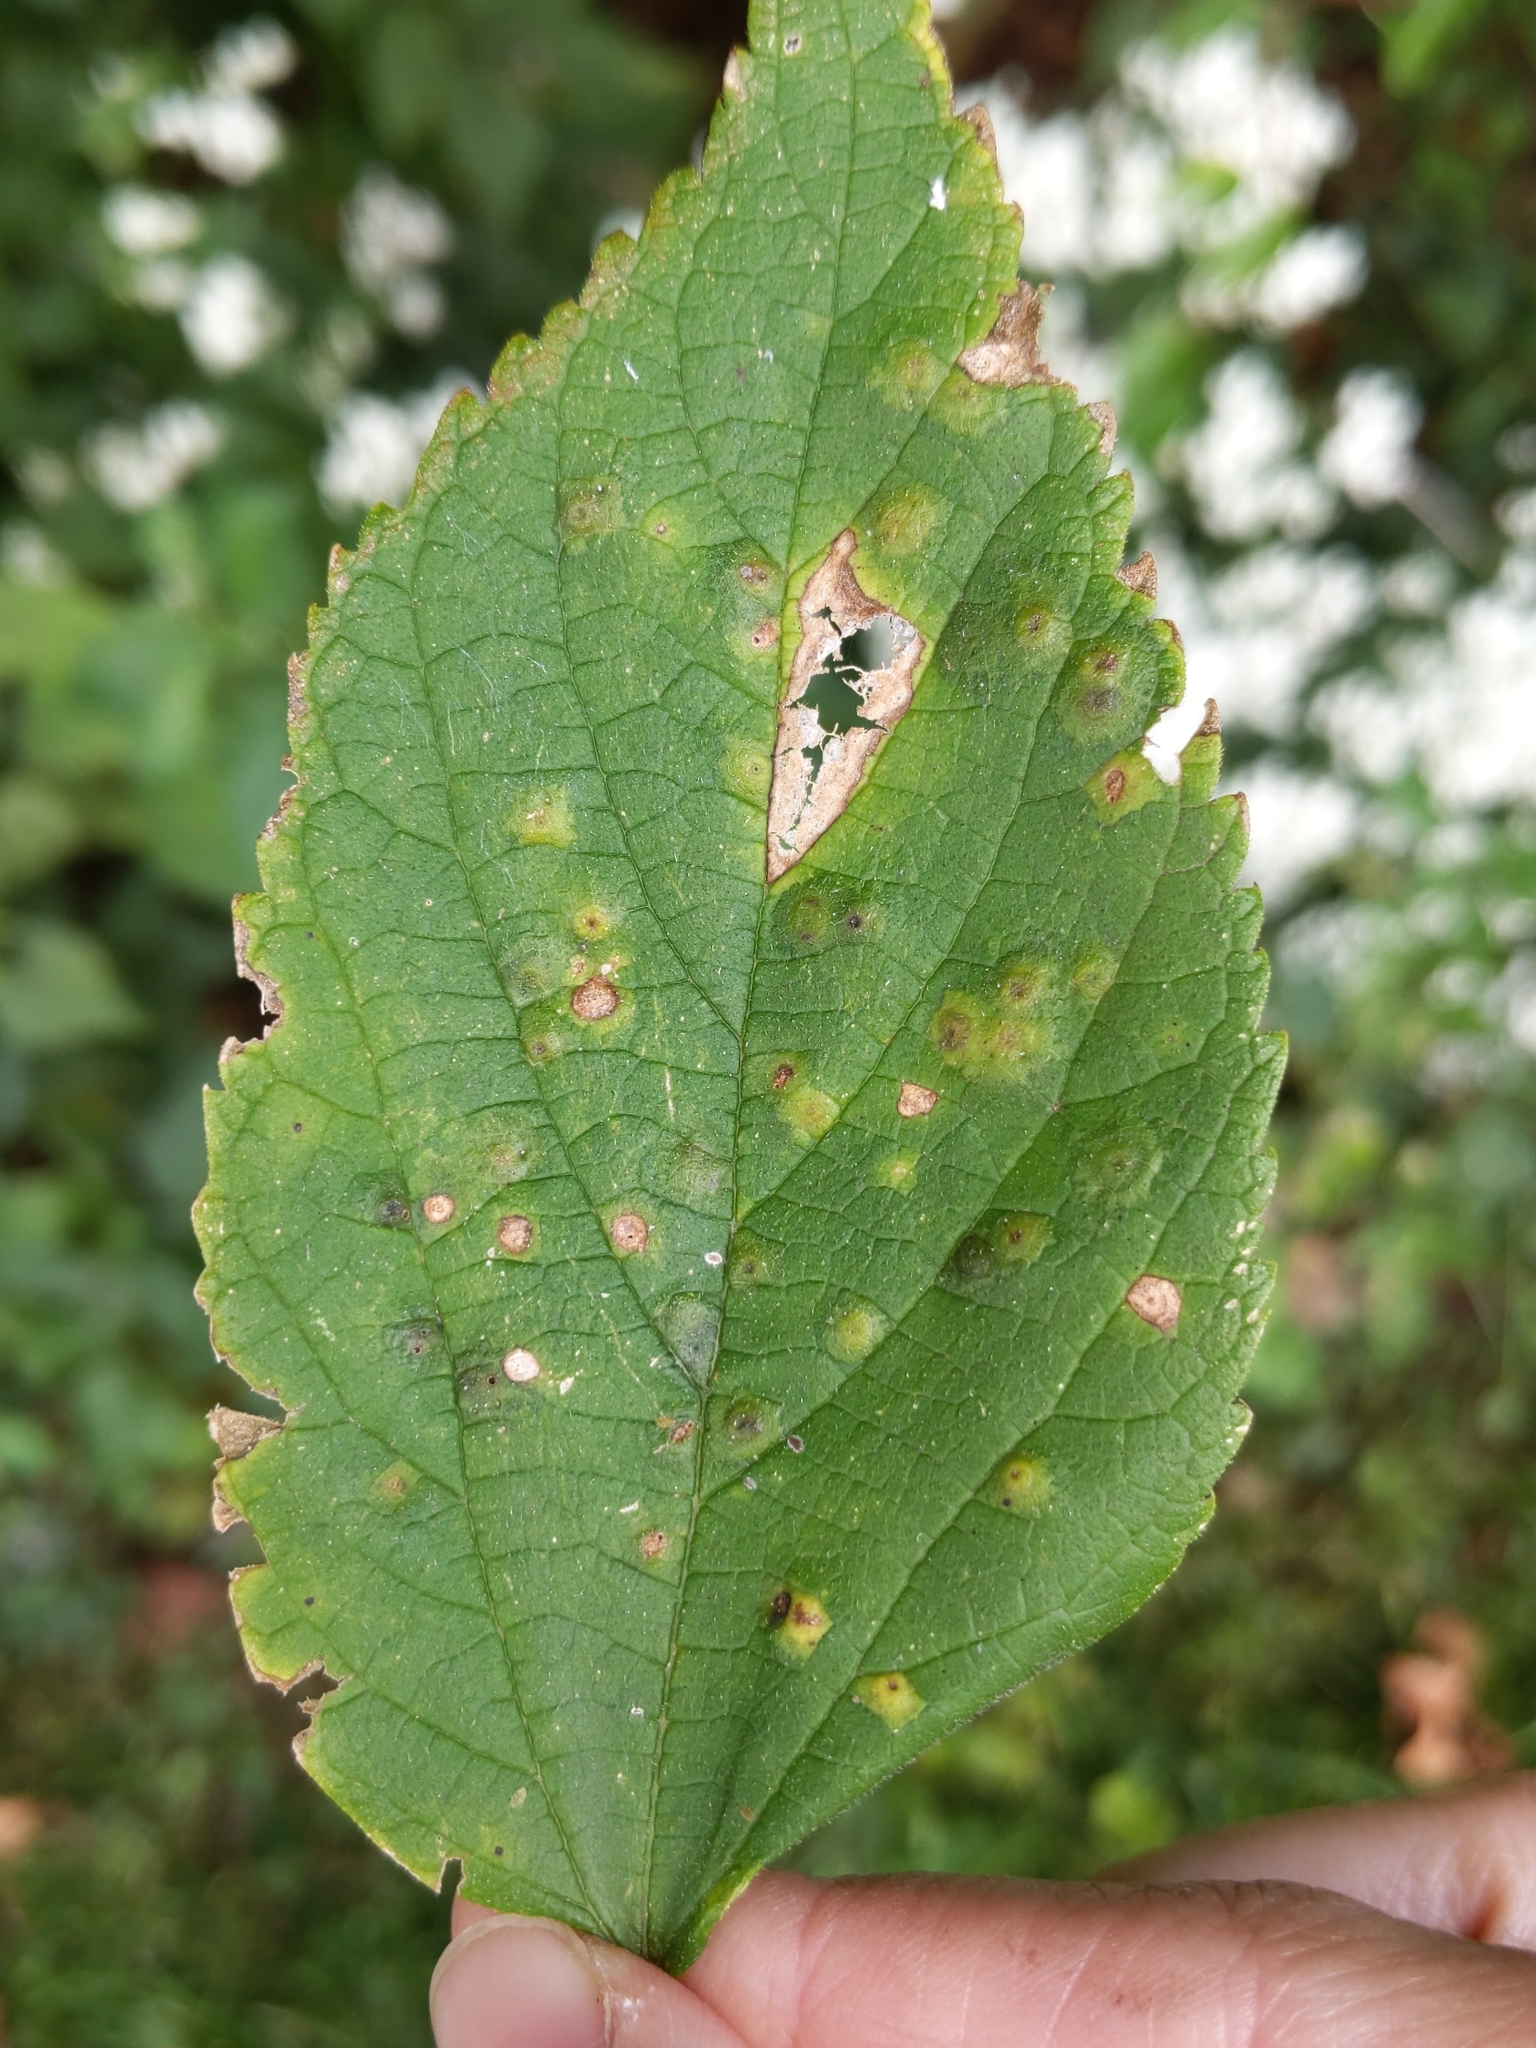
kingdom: Animalia
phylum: Arthropoda
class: Insecta
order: Hemiptera
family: Aphalaridae
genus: Pachypsylla
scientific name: Pachypsylla celtidisvesicula
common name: Hackberry blister gall psyllid
